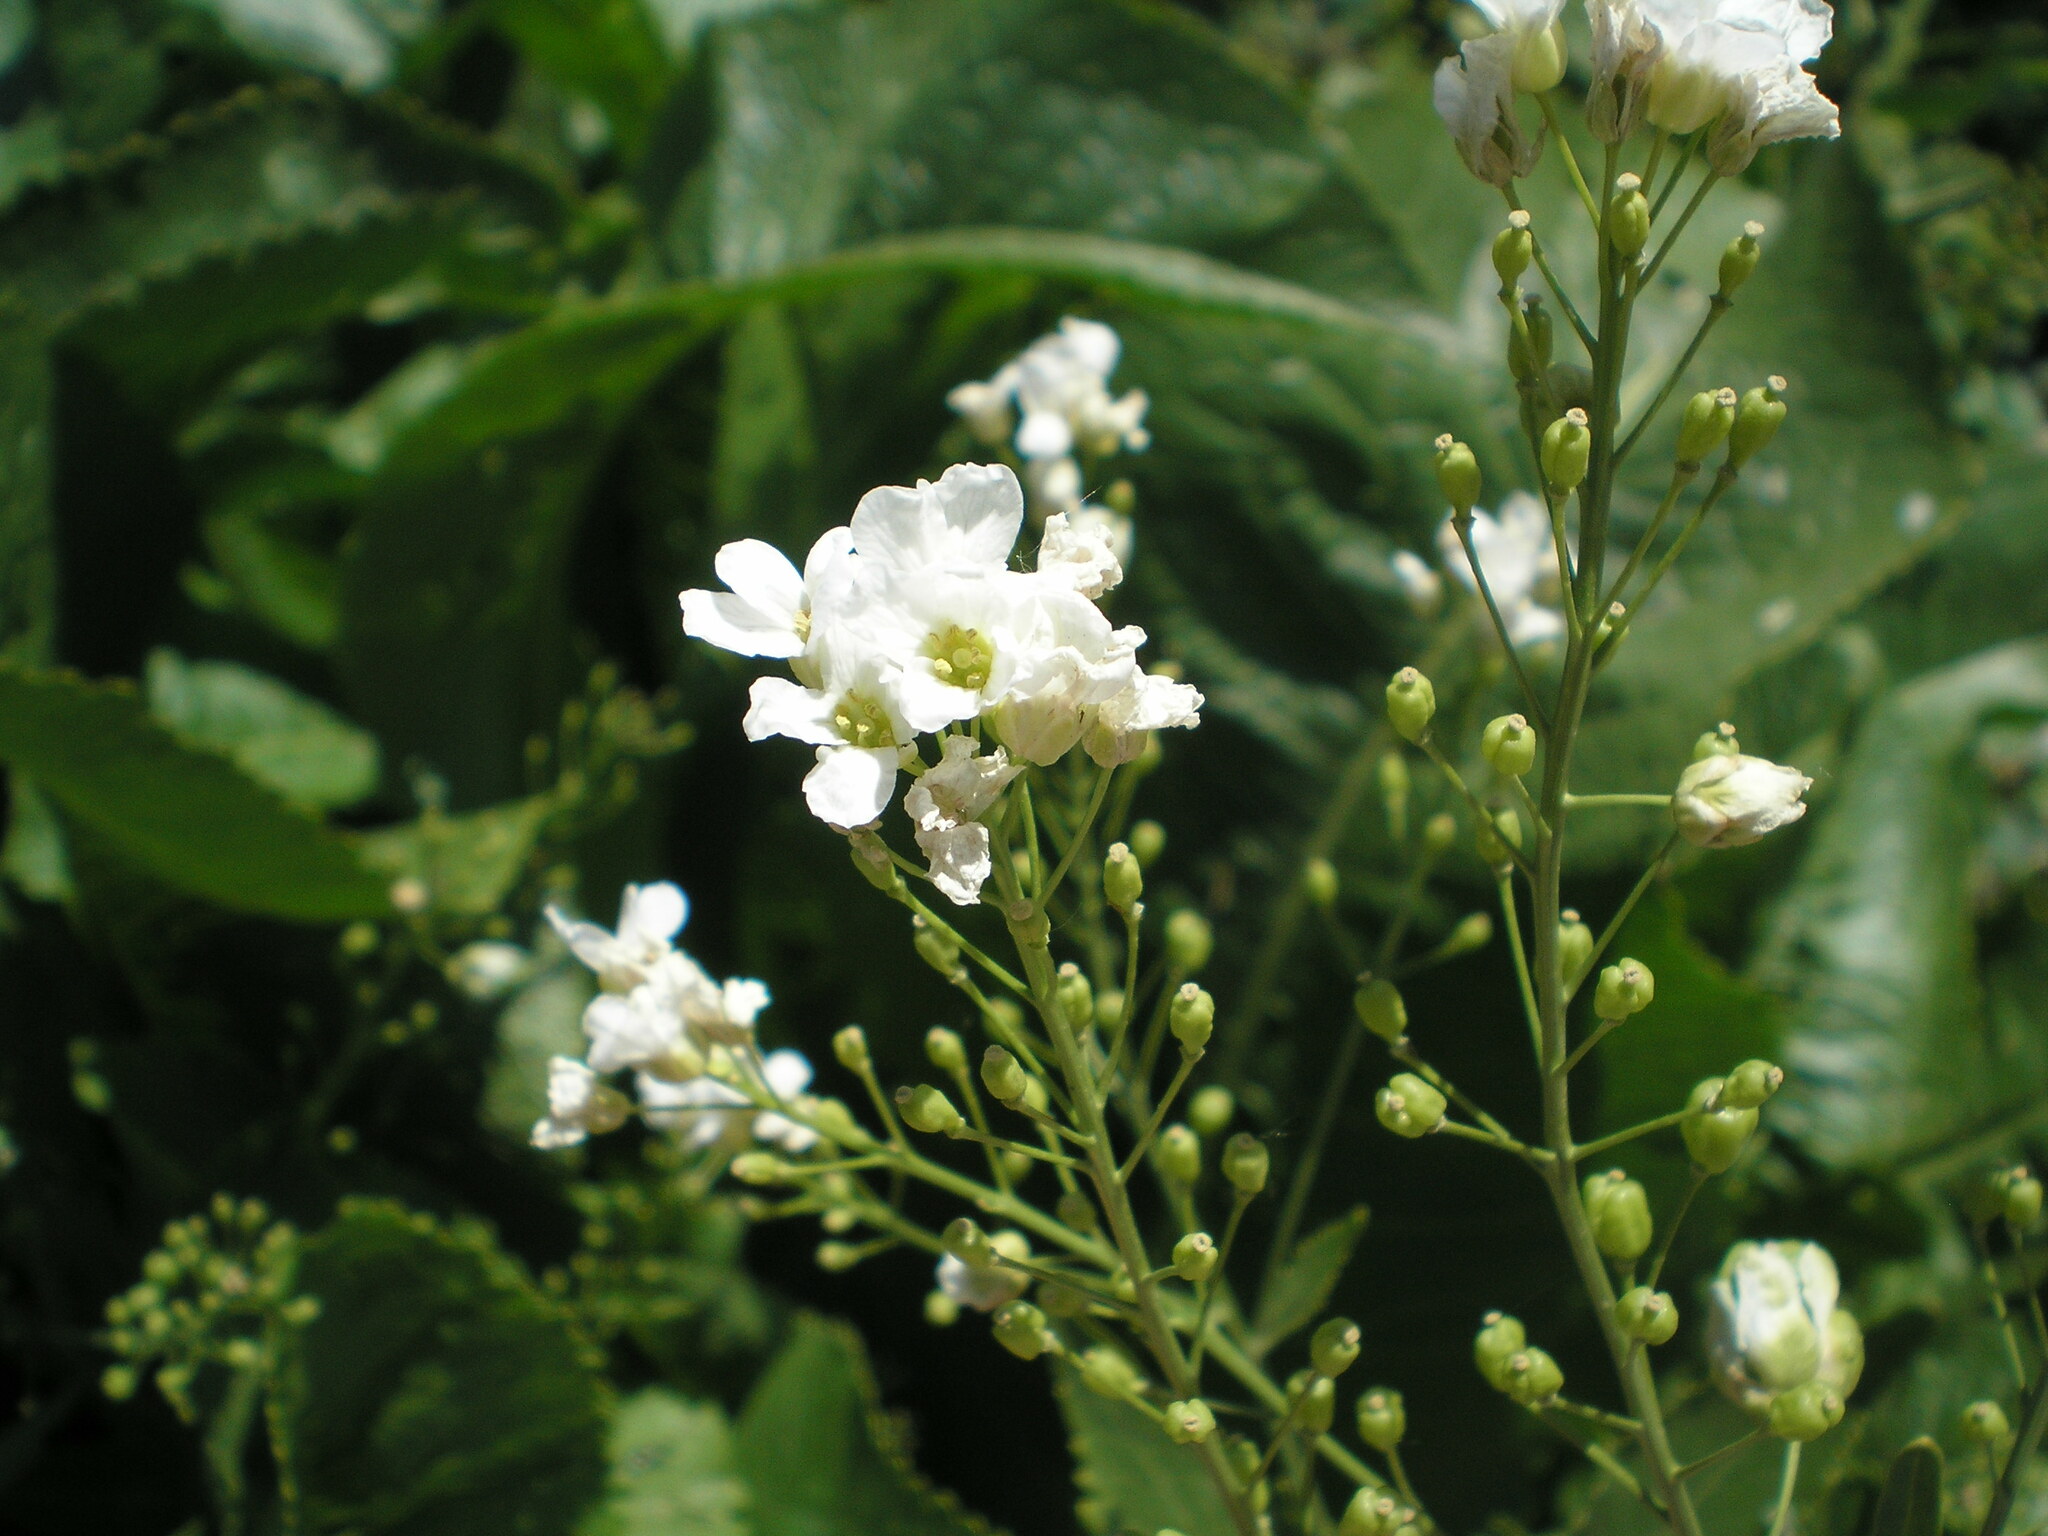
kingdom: Plantae
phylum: Tracheophyta
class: Magnoliopsida
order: Brassicales
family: Brassicaceae
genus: Armoracia
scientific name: Armoracia rusticana
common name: Horseradish
